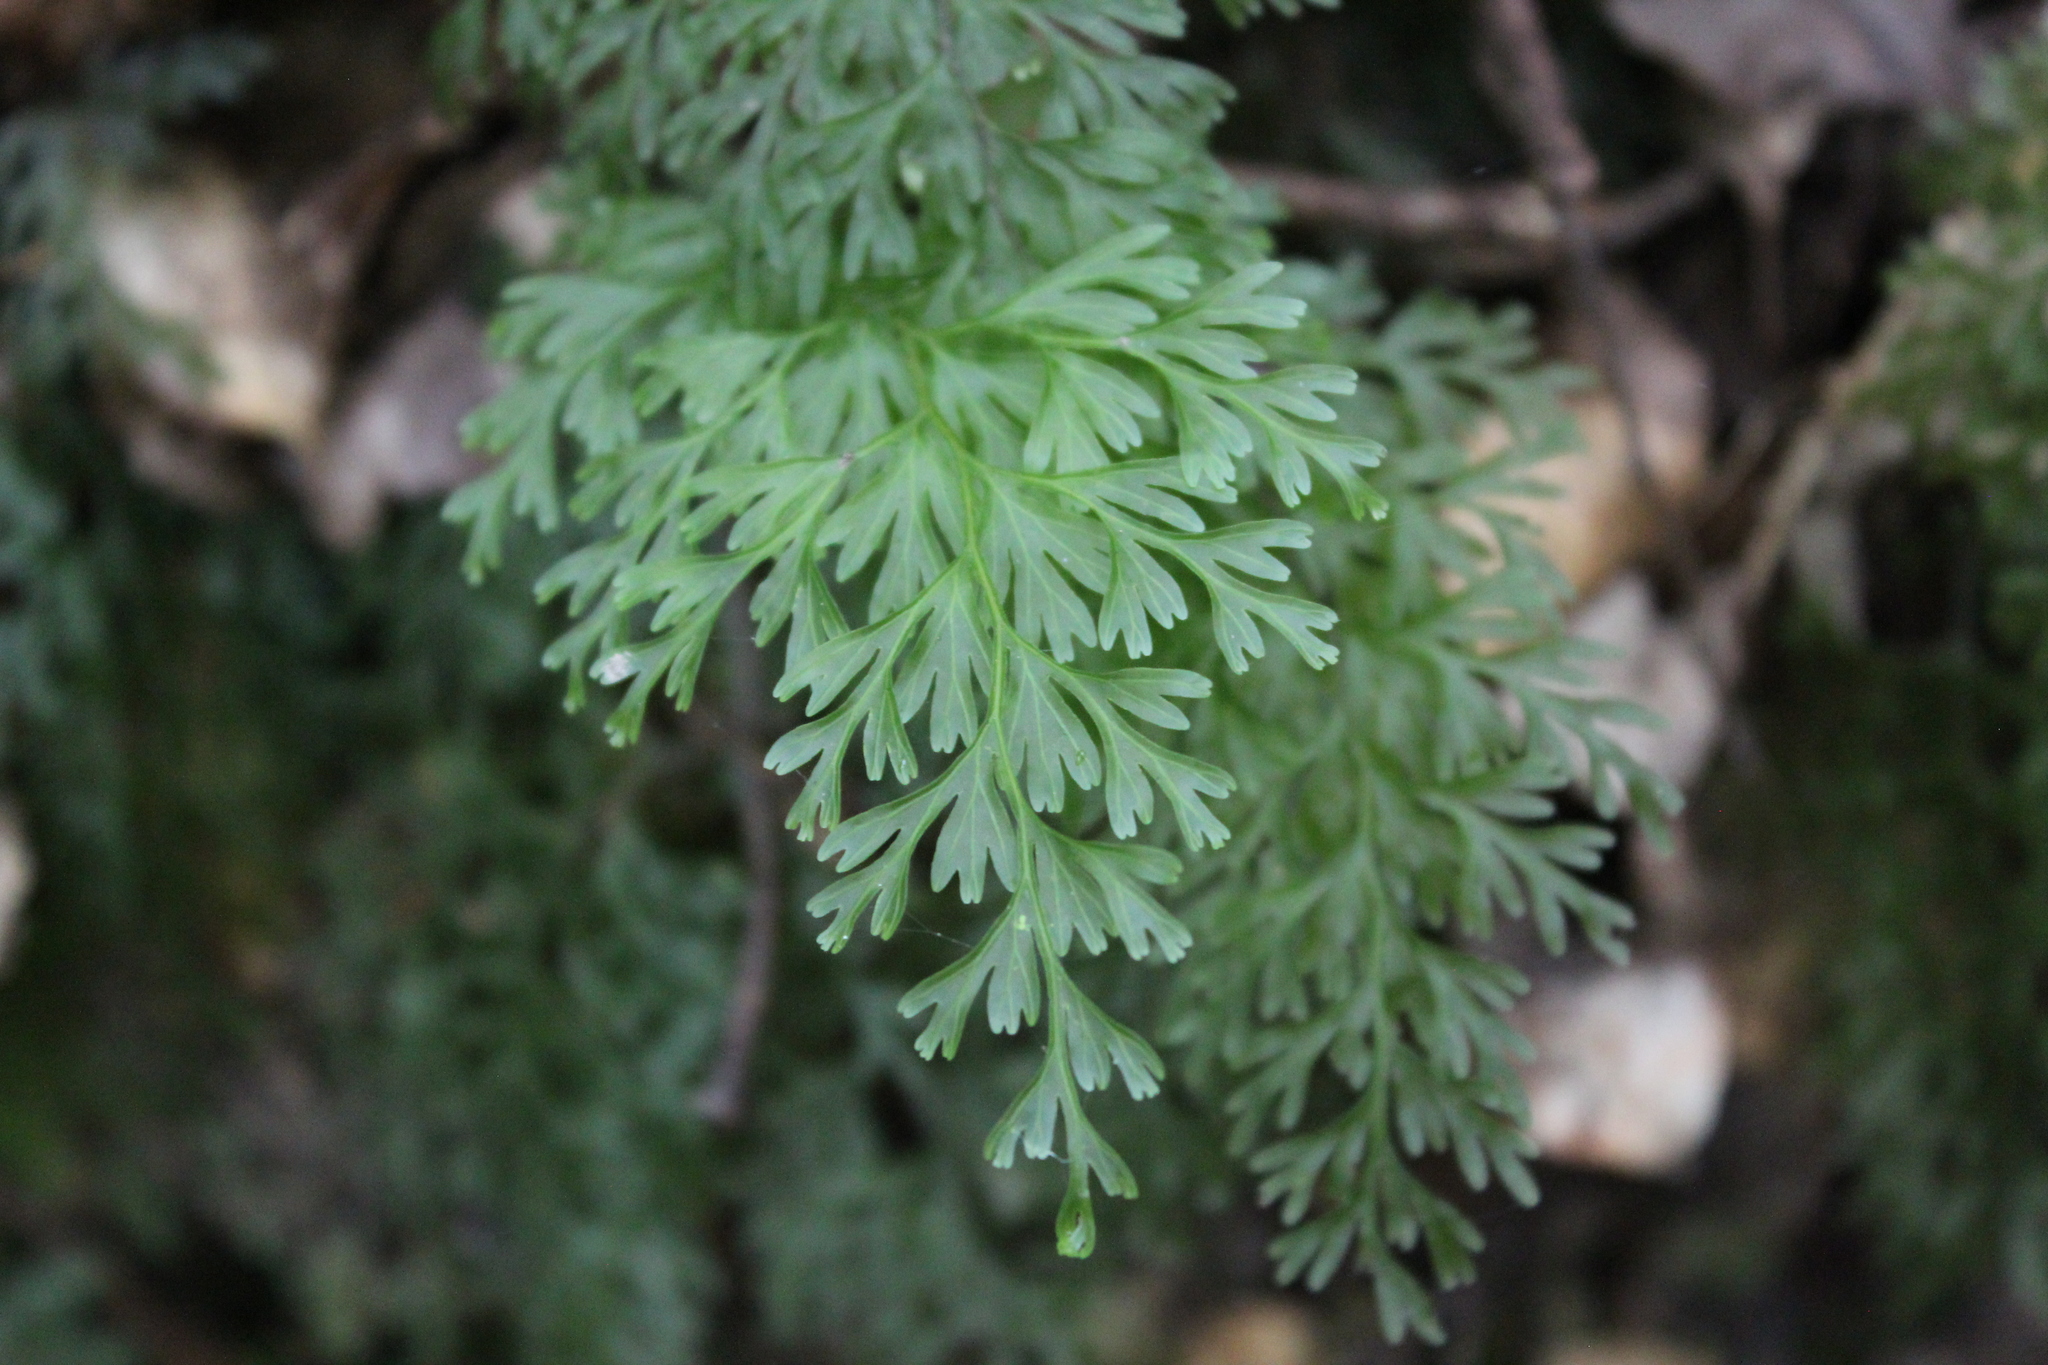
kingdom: Plantae
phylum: Tracheophyta
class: Polypodiopsida
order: Hymenophyllales
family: Hymenophyllaceae
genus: Hymenophyllum
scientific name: Hymenophyllum demissum
